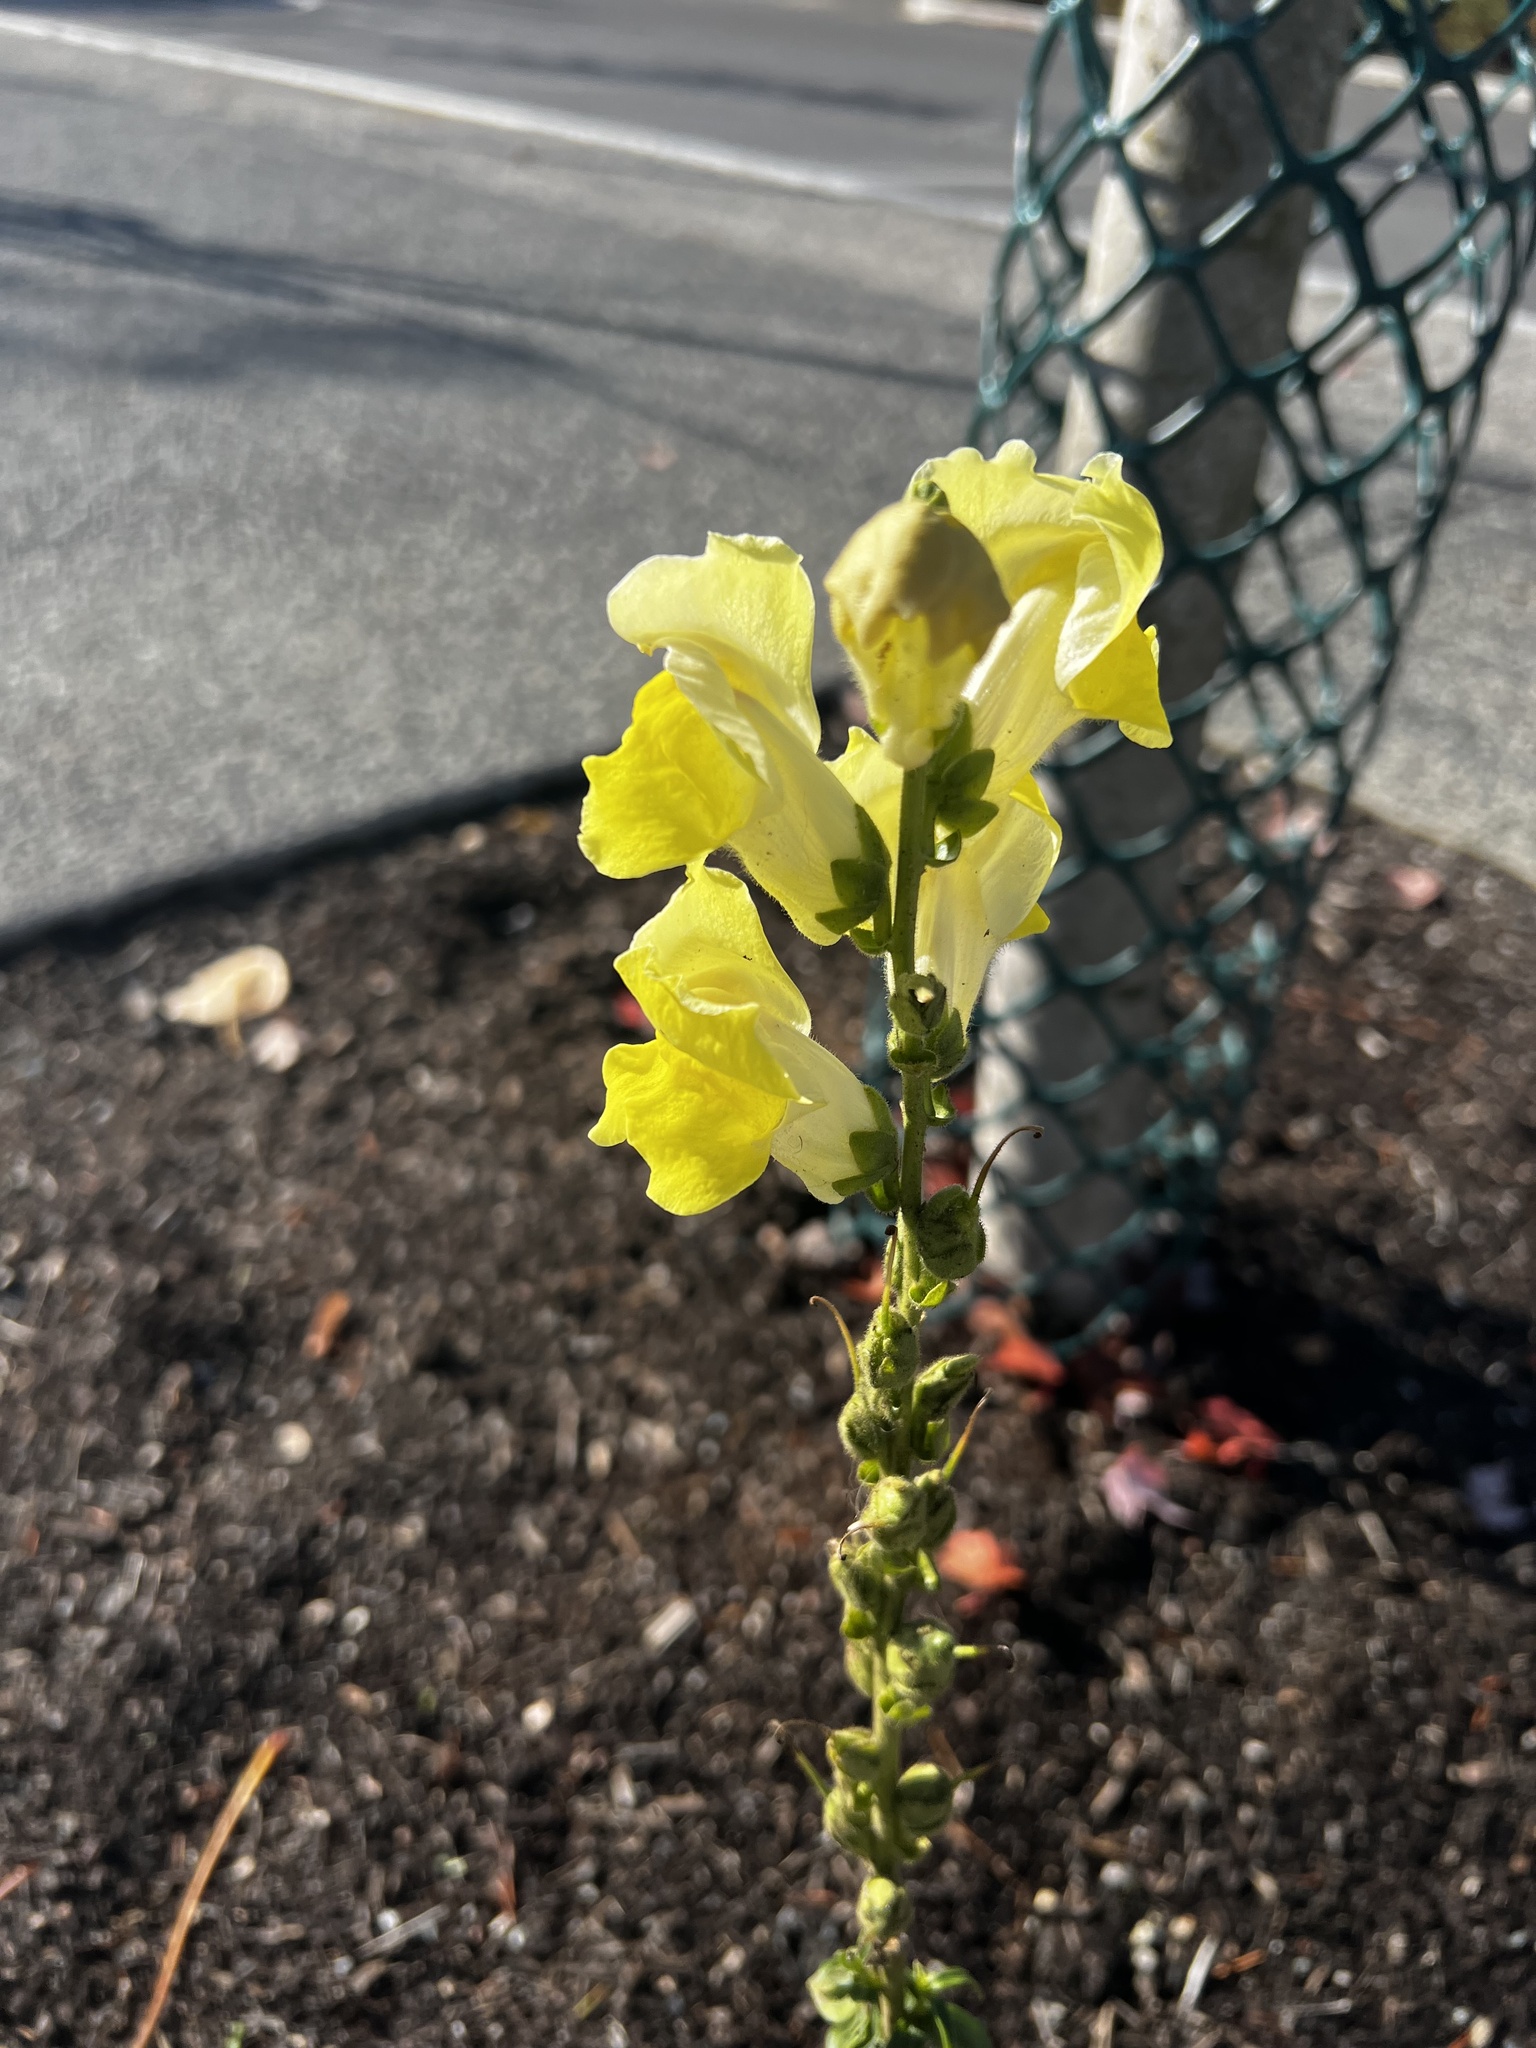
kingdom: Plantae
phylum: Tracheophyta
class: Magnoliopsida
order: Lamiales
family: Plantaginaceae
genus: Antirrhinum
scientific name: Antirrhinum majus
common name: Snapdragon
